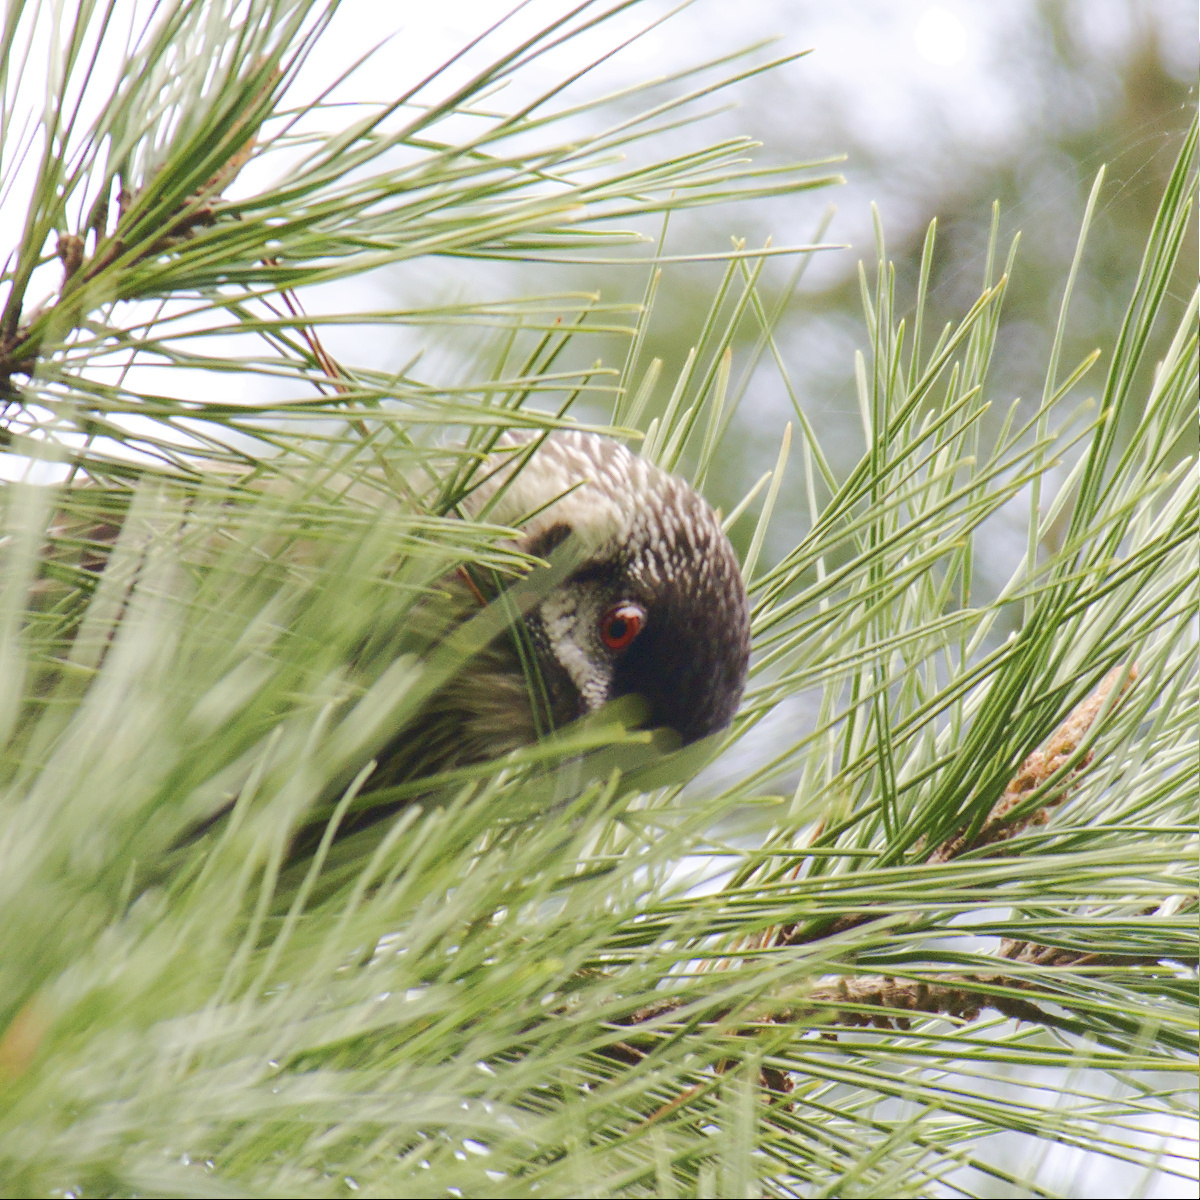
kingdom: Animalia
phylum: Chordata
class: Aves
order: Passeriformes
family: Meliphagidae
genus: Anthochaera
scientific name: Anthochaera carunculata
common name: Red wattlebird
